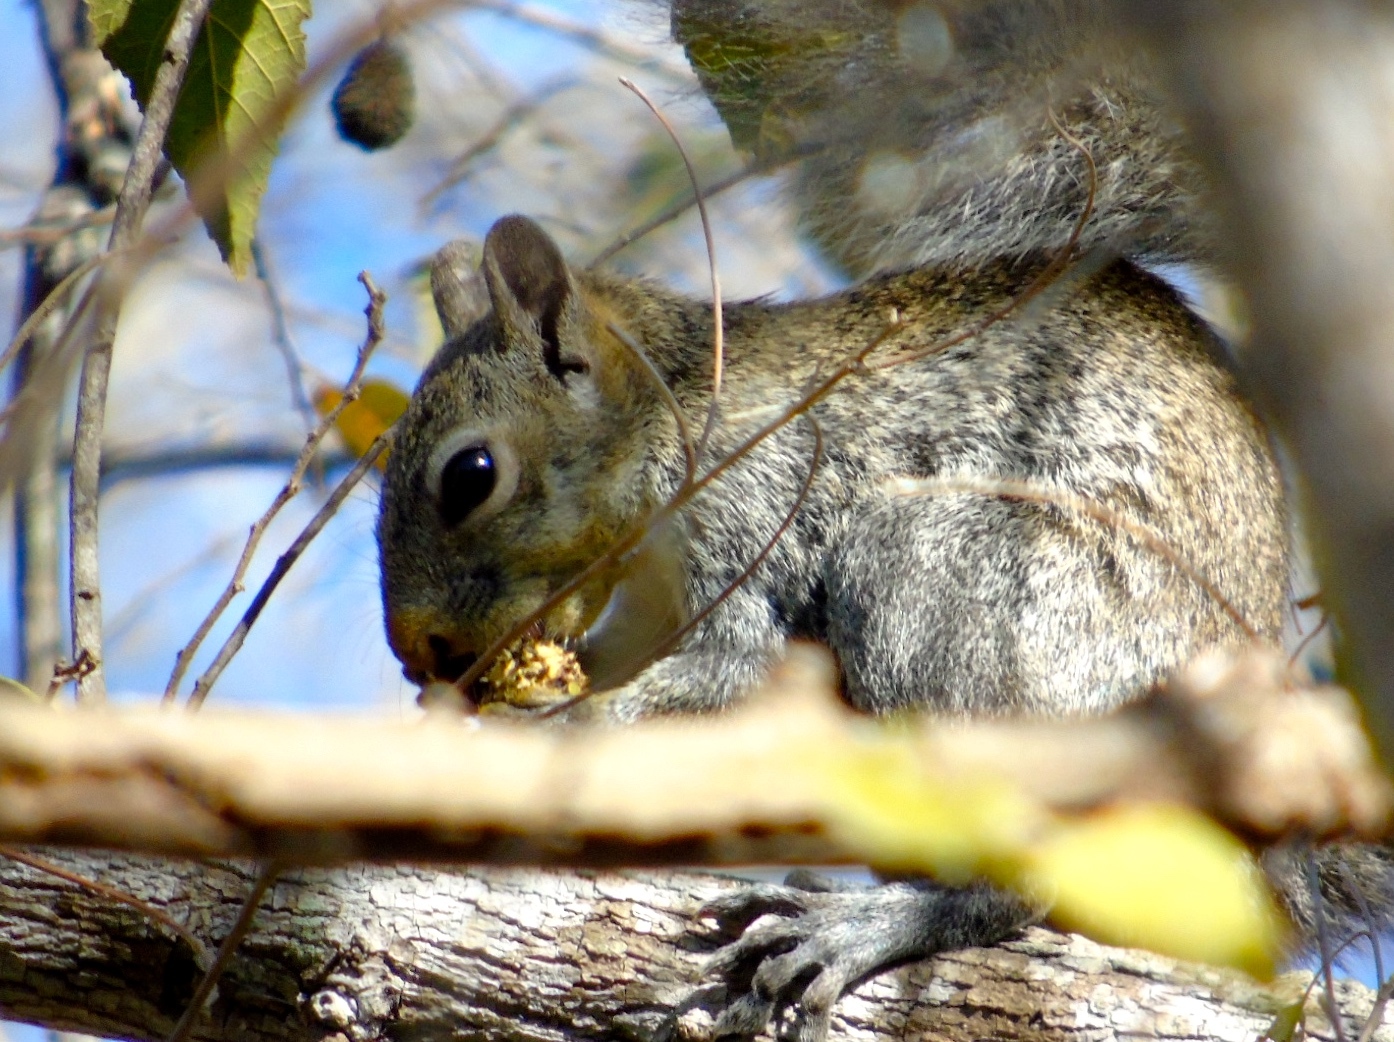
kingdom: Animalia
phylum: Chordata
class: Mammalia
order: Rodentia
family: Sciuridae
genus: Sciurus
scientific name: Sciurus colliaei
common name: Collie's squirrel
